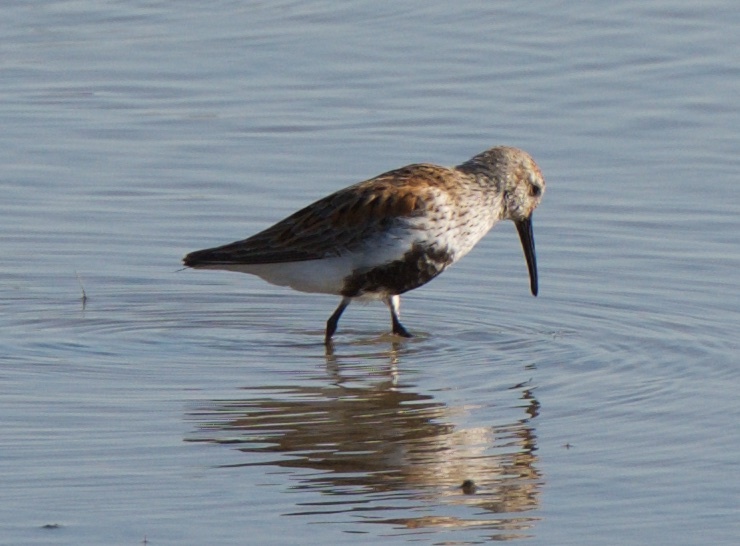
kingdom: Animalia
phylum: Chordata
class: Aves
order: Charadriiformes
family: Scolopacidae
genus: Calidris
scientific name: Calidris alpina
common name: Dunlin
